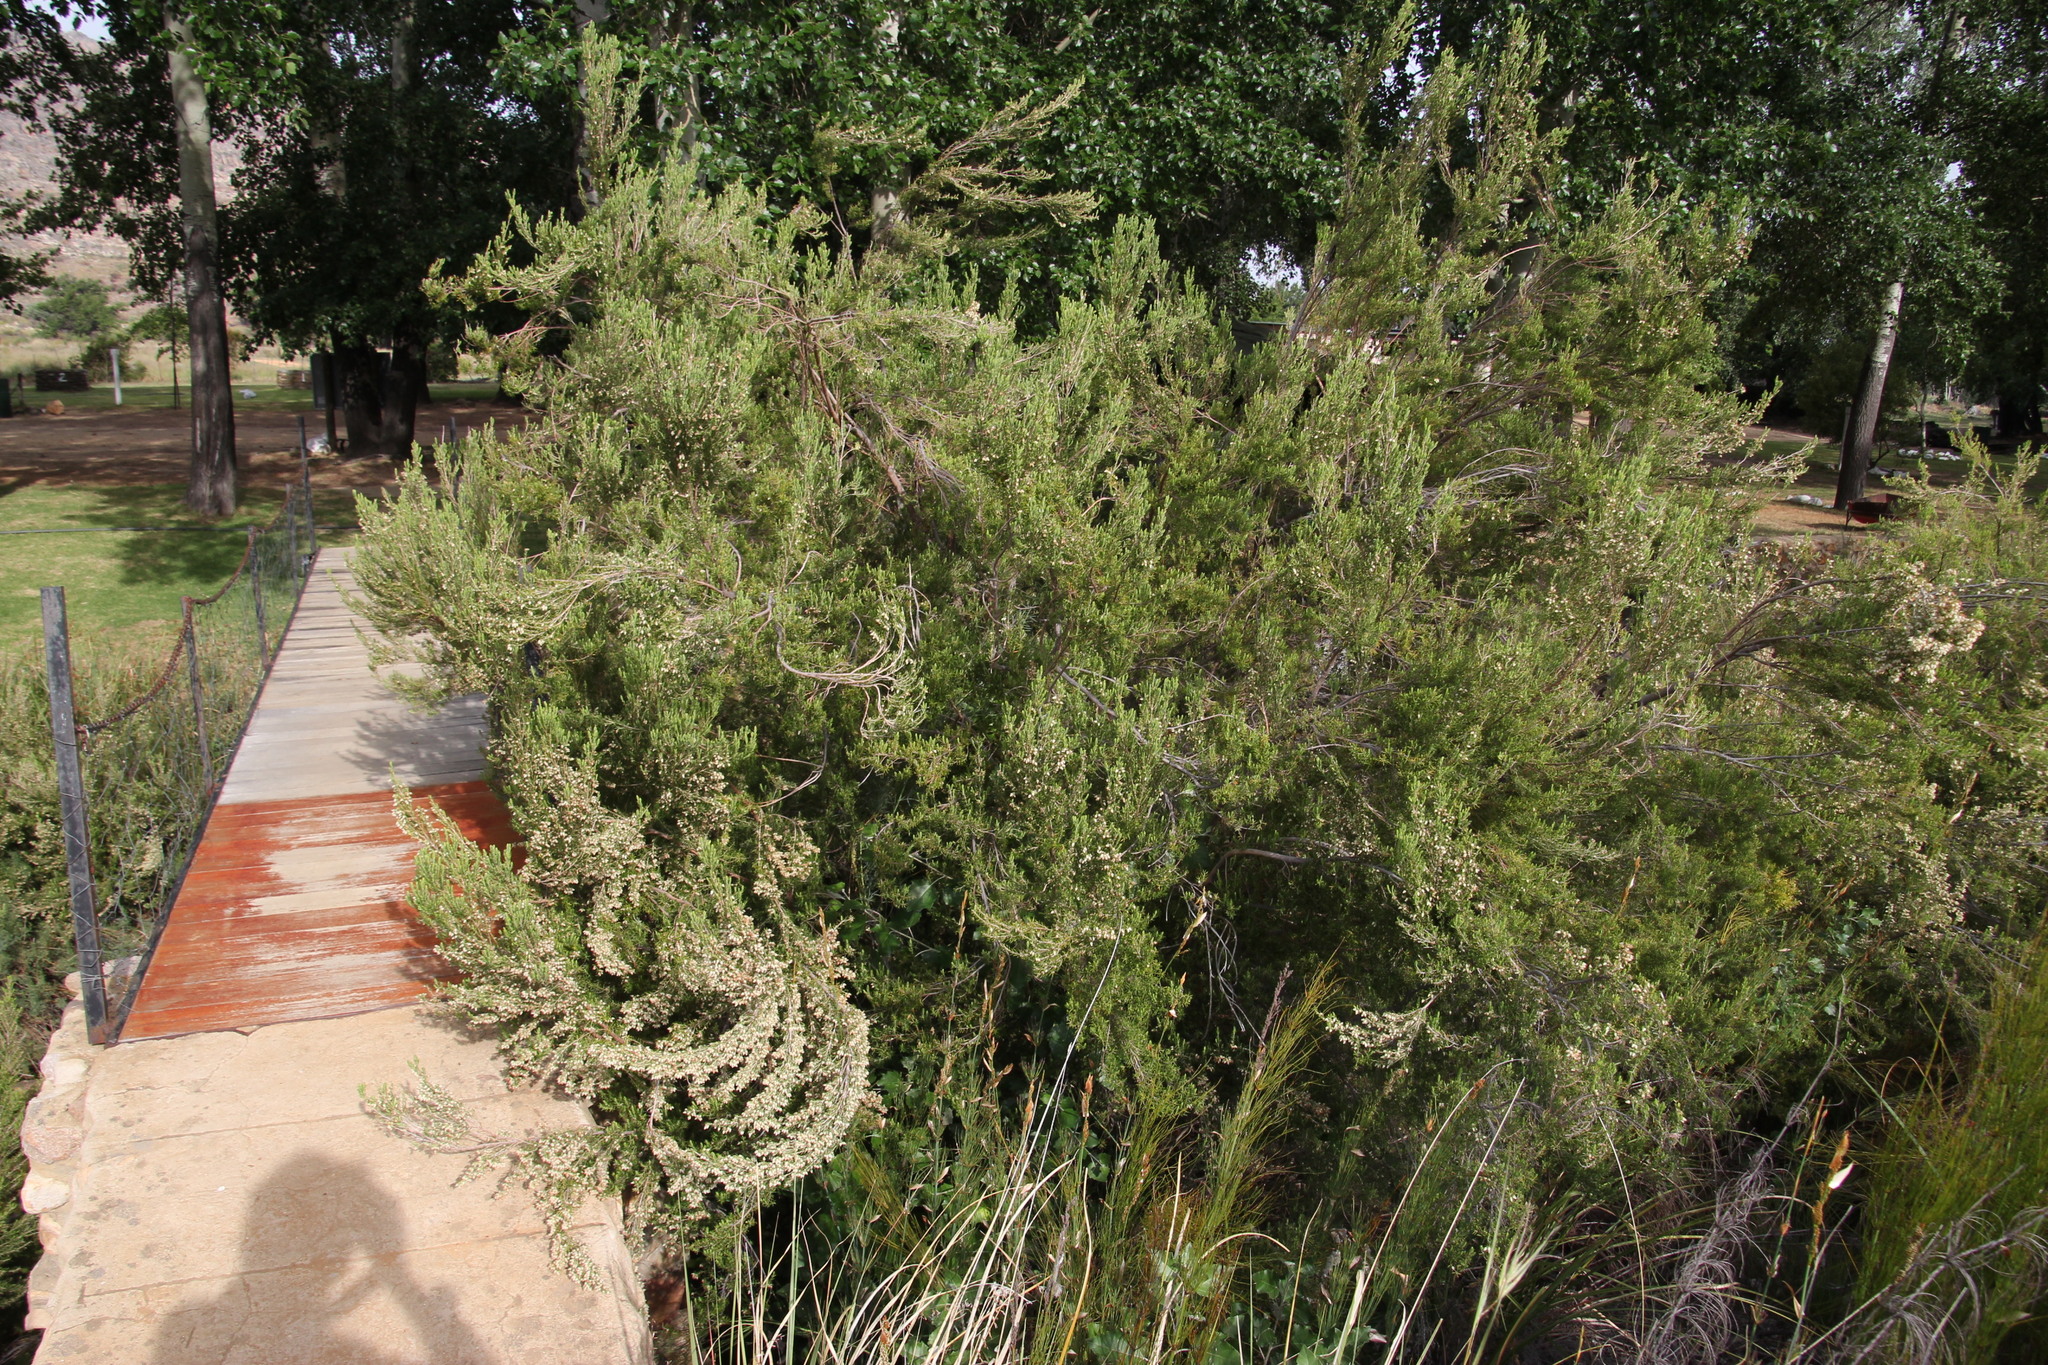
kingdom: Plantae
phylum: Tracheophyta
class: Magnoliopsida
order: Ericales
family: Ericaceae
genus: Erica
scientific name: Erica caffra
